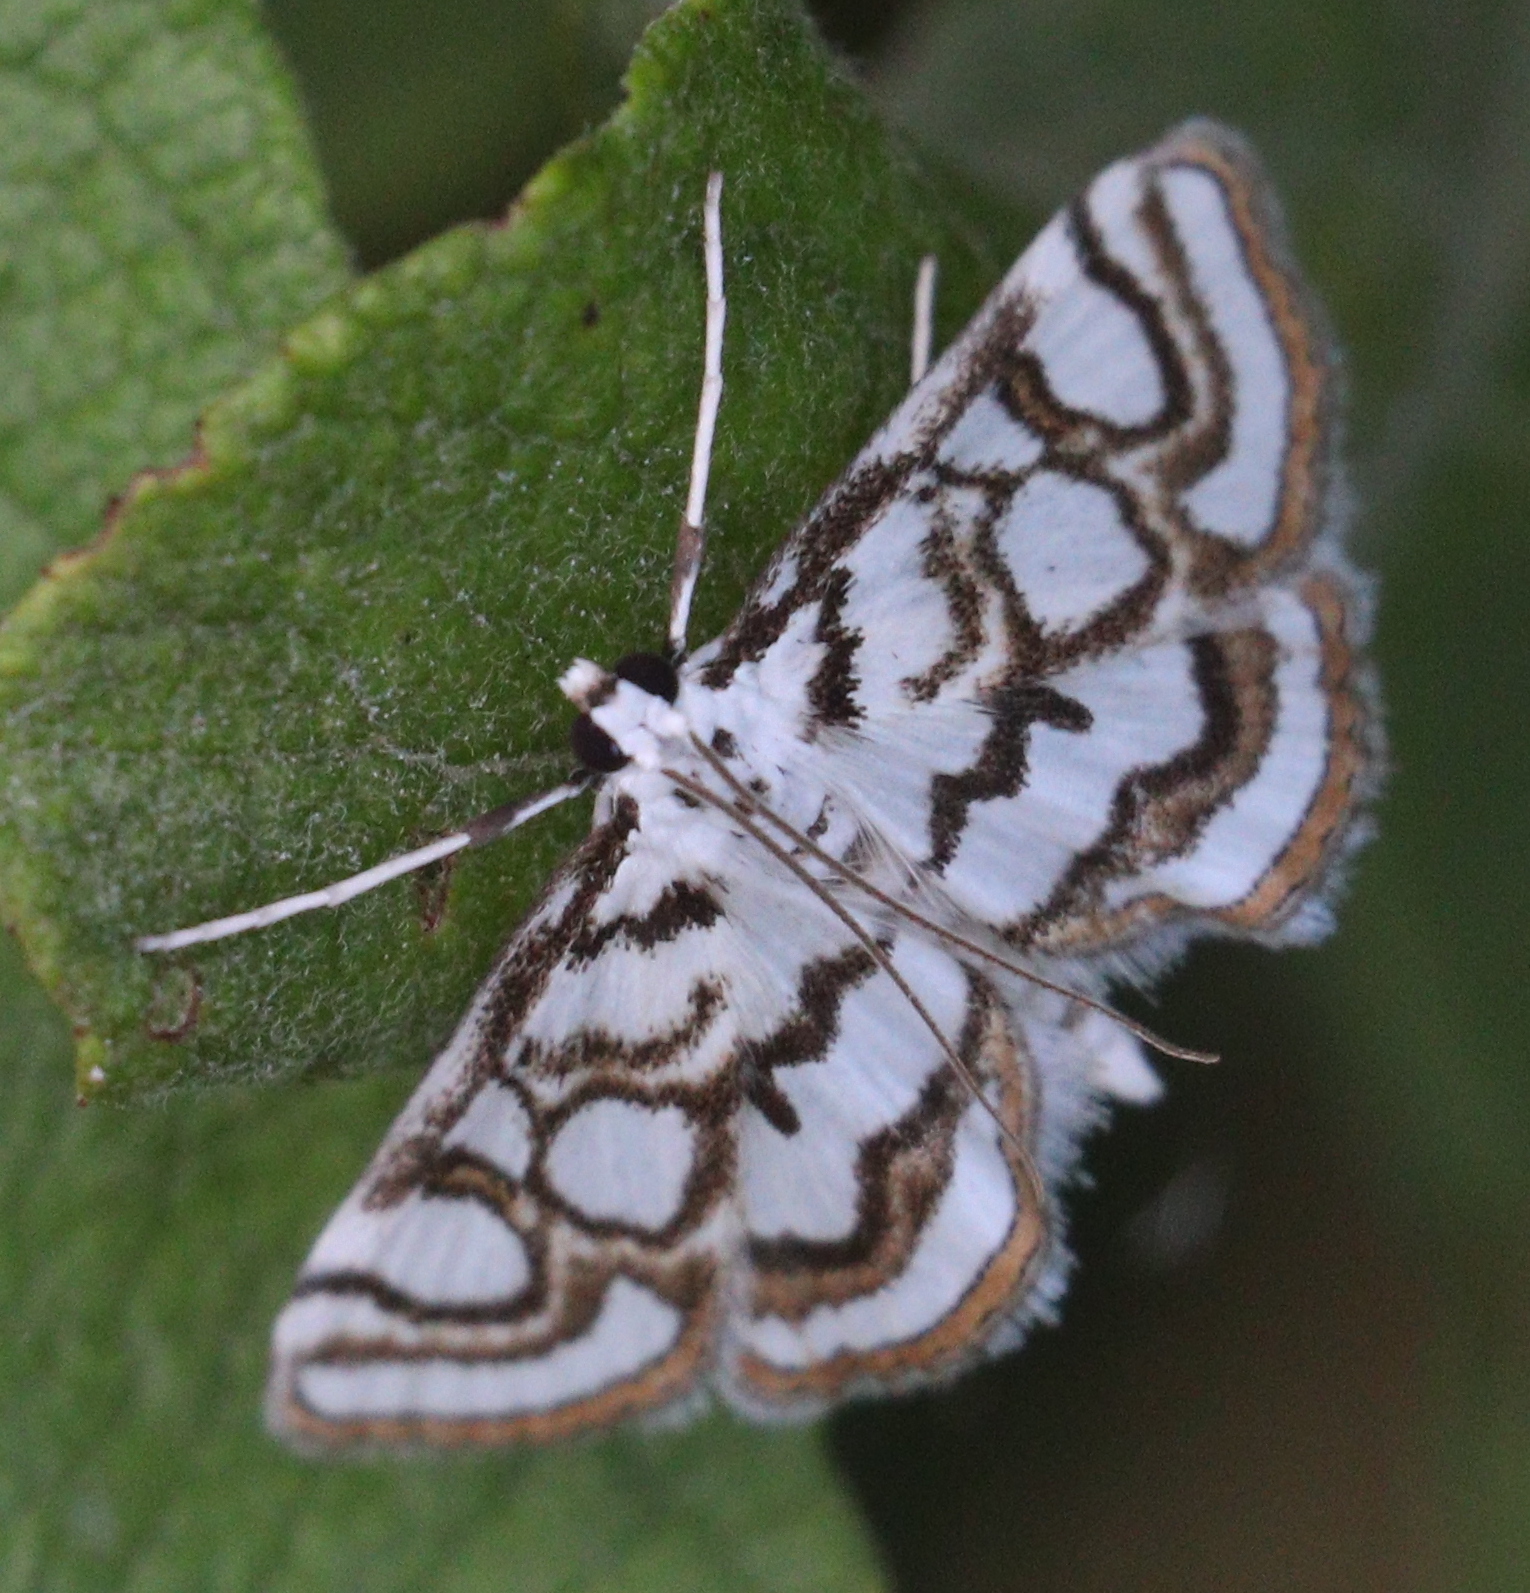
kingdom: Animalia
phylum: Arthropoda
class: Insecta
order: Lepidoptera
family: Crambidae
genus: Nymphula
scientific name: Nymphula nitidulata
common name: Beautiful china mark
